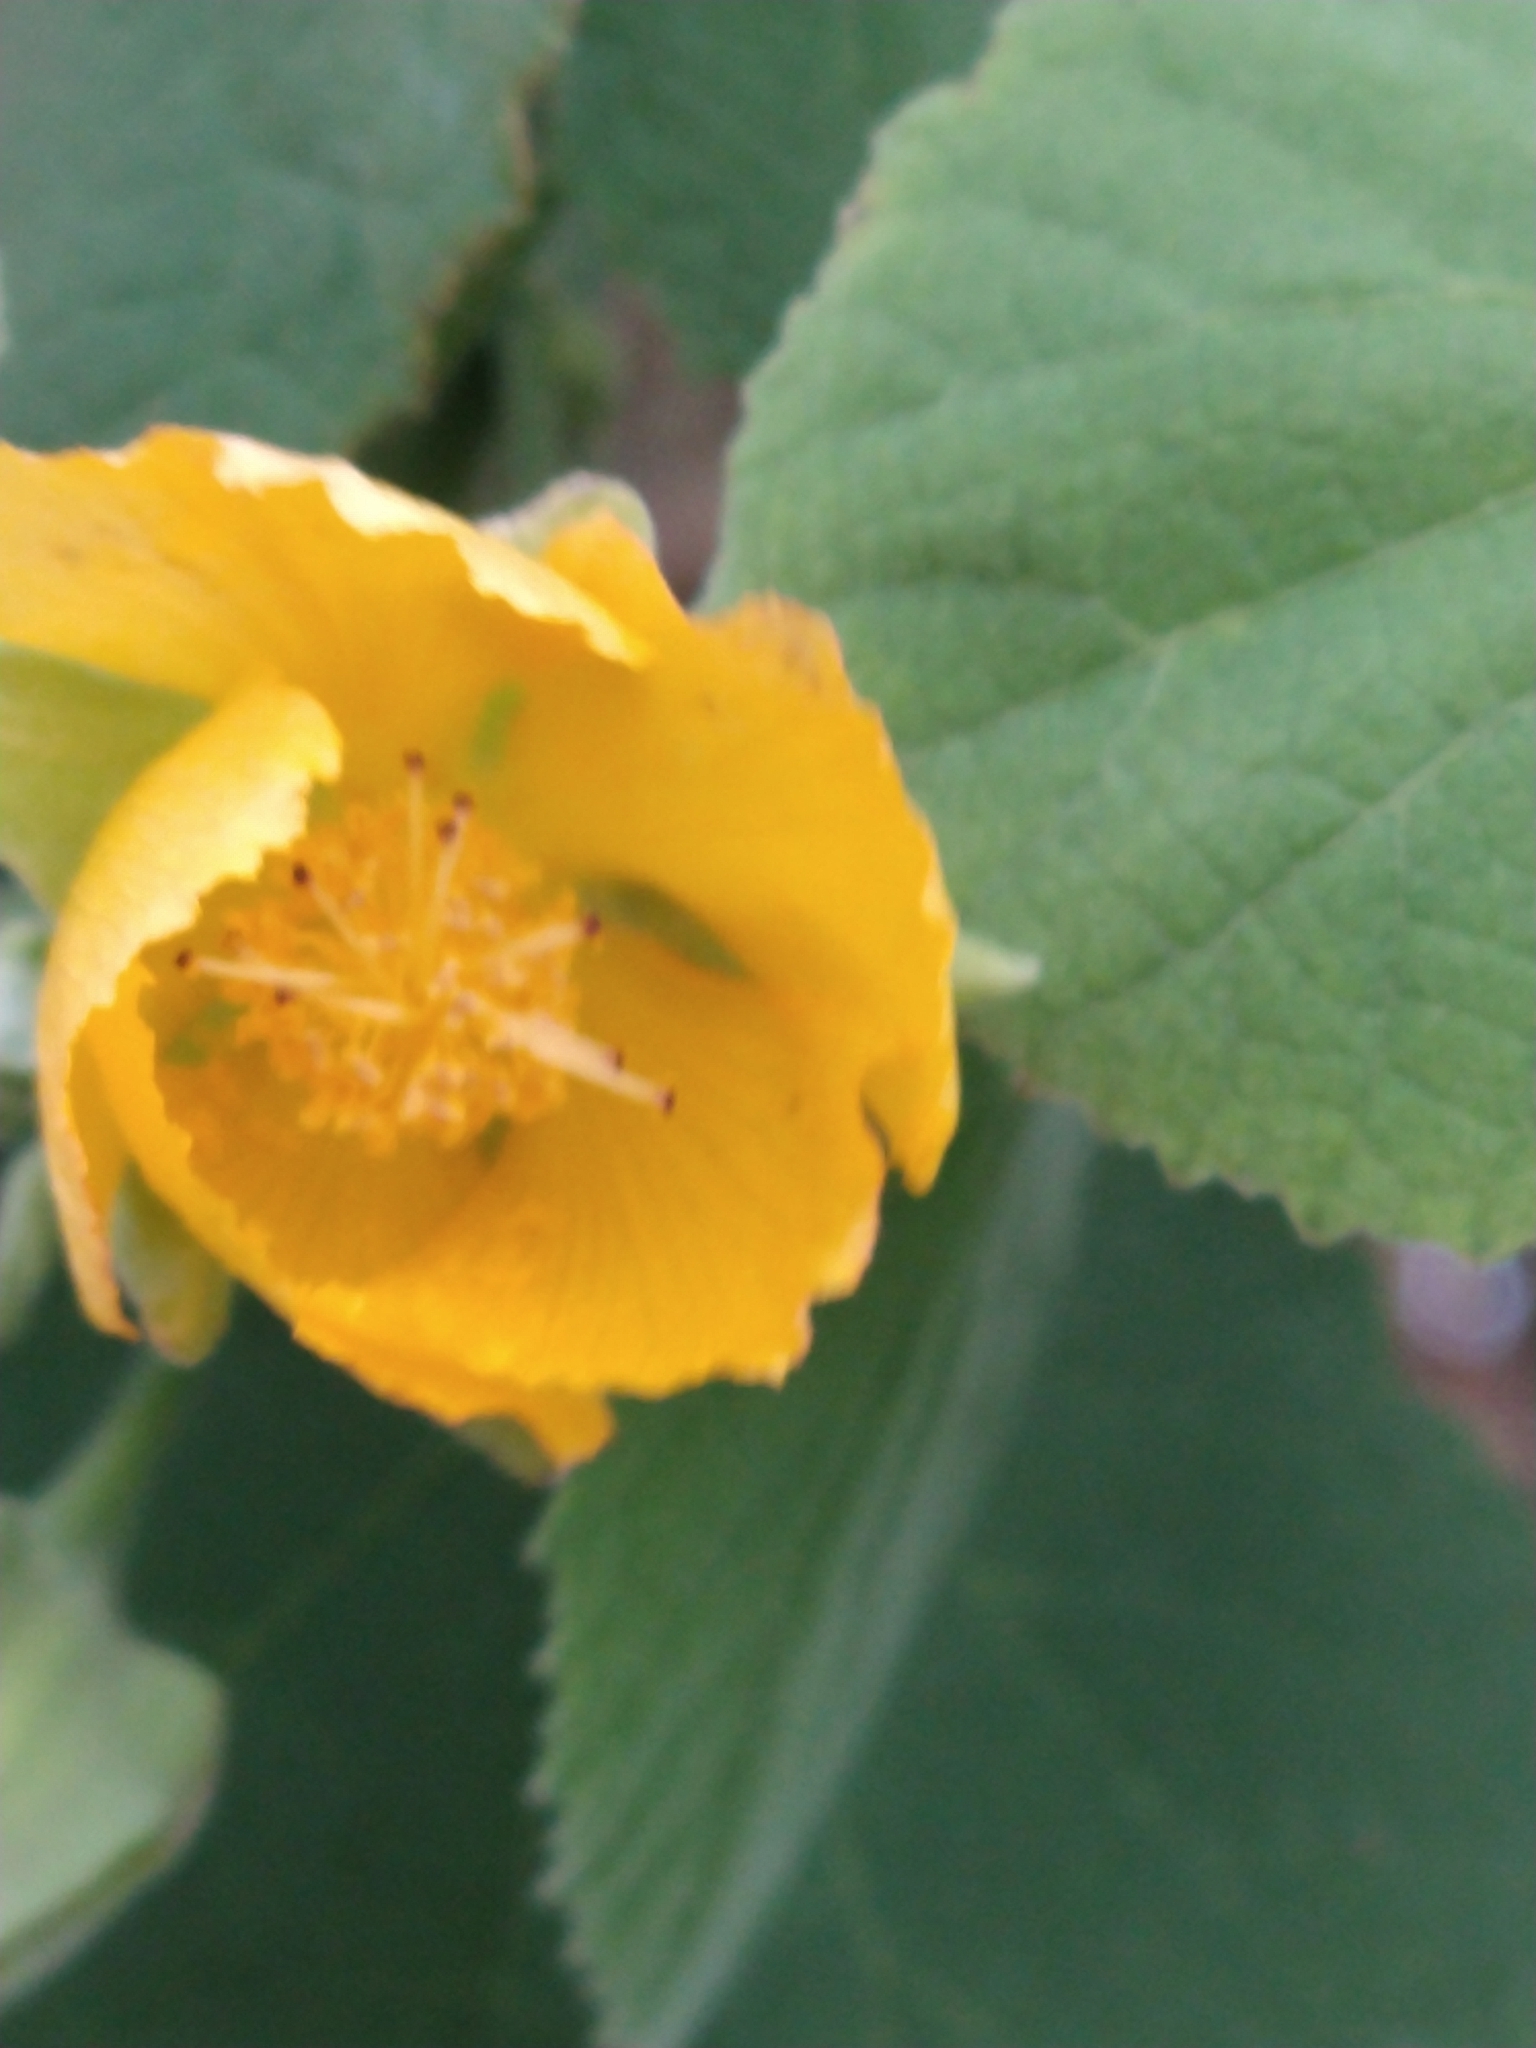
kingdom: Plantae
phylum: Tracheophyta
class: Magnoliopsida
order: Malvales
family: Malvaceae
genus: Abutilon
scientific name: Abutilon grandifolium
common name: Hairy abutilon
